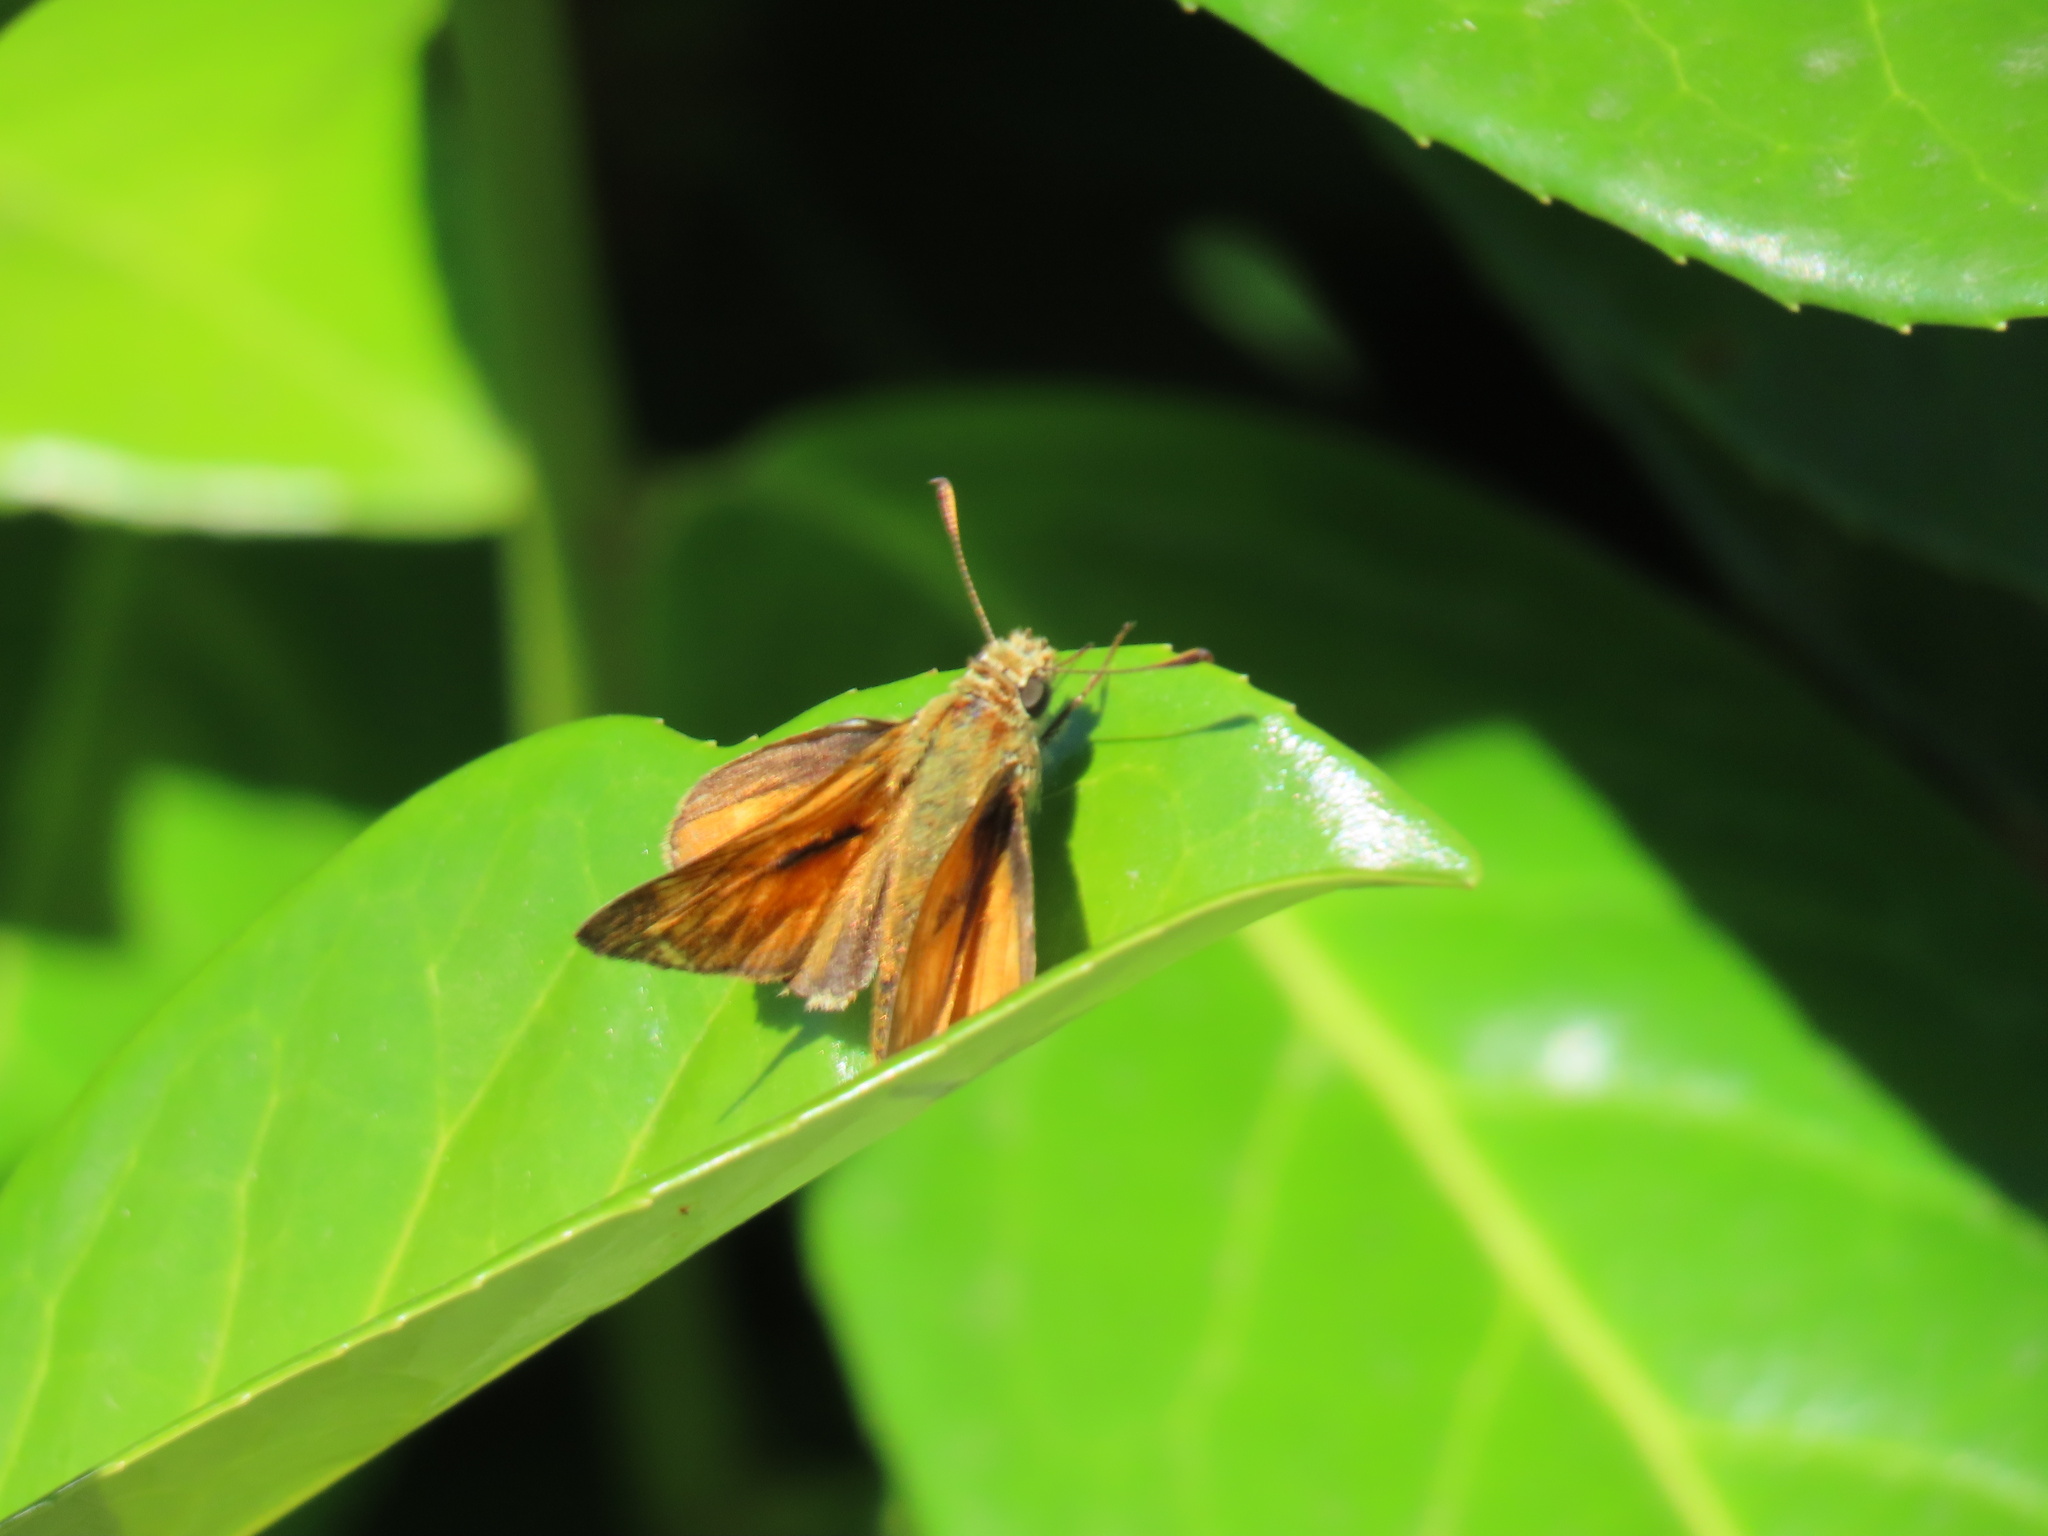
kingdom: Animalia
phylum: Arthropoda
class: Insecta
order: Lepidoptera
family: Hesperiidae
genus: Ochlodes
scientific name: Ochlodes venata
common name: Large skipper
